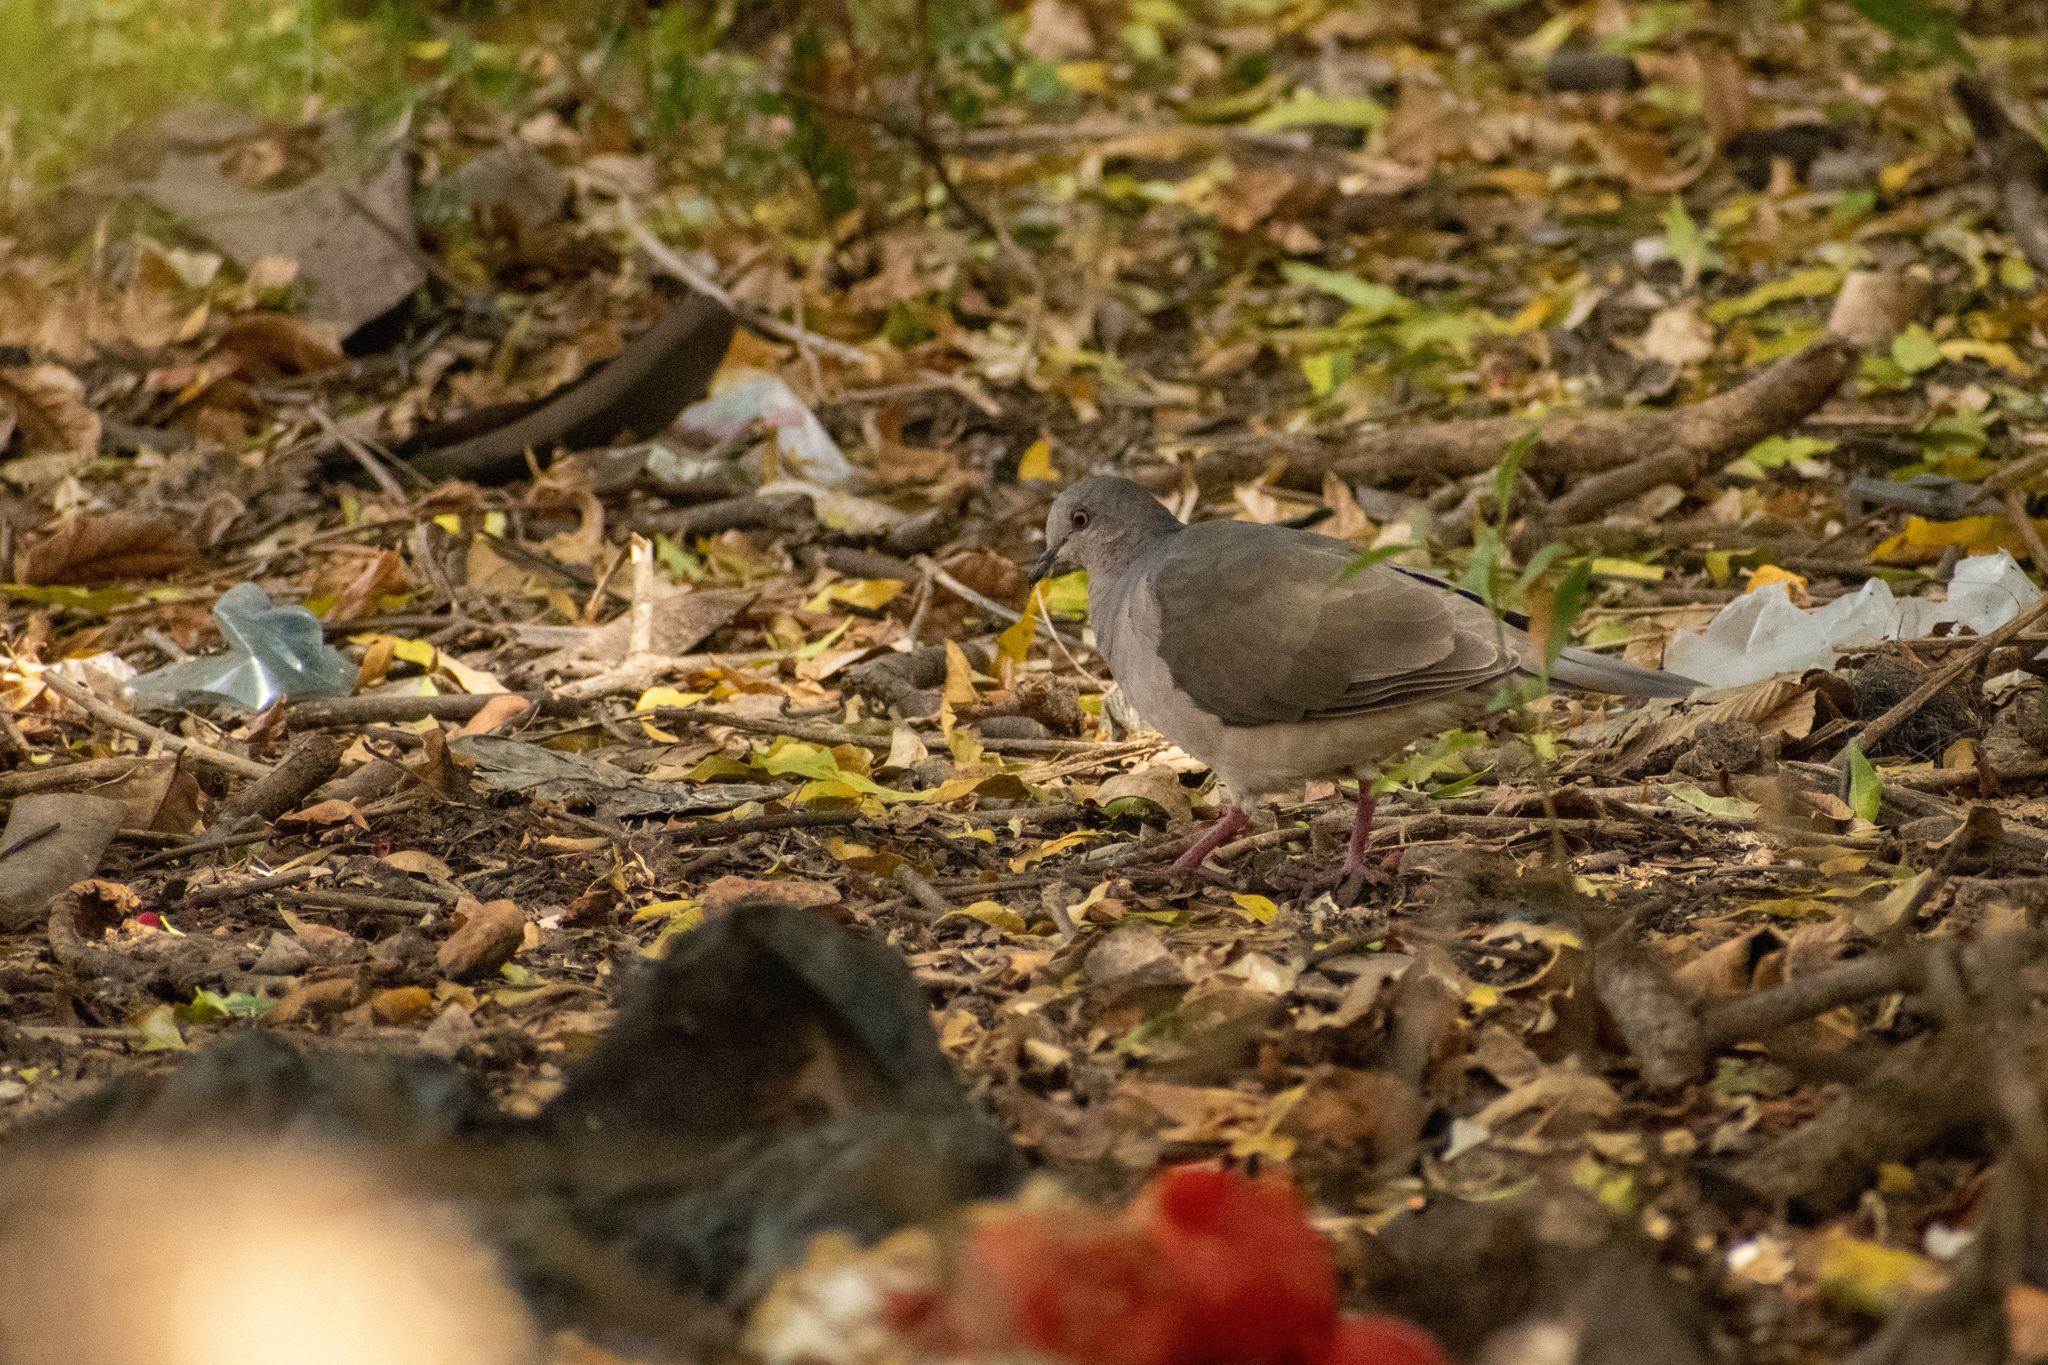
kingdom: Animalia
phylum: Chordata
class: Aves
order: Columbiformes
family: Columbidae
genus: Leptotila
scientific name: Leptotila verreauxi
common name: White-tipped dove
